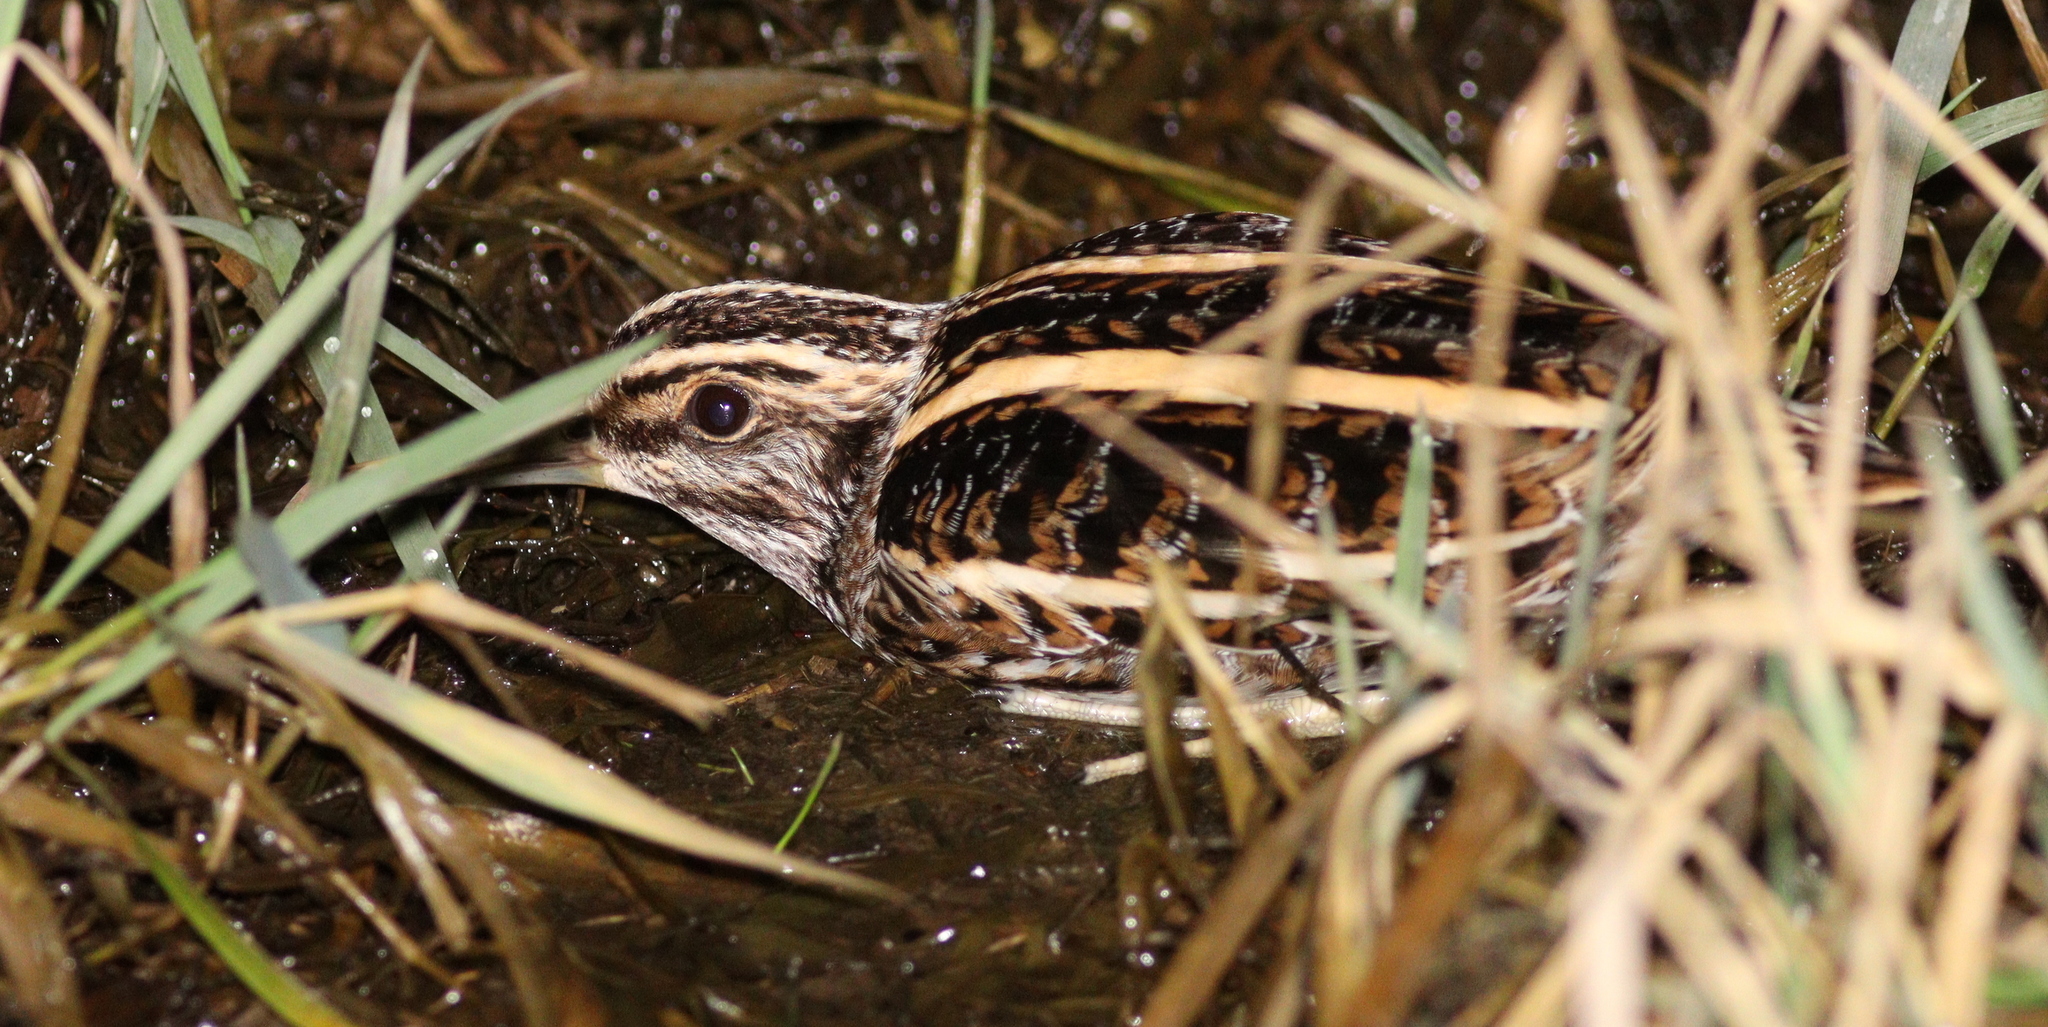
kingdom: Animalia
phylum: Chordata
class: Aves
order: Charadriiformes
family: Scolopacidae
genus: Lymnocryptes
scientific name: Lymnocryptes minimus
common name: Jack snipe
